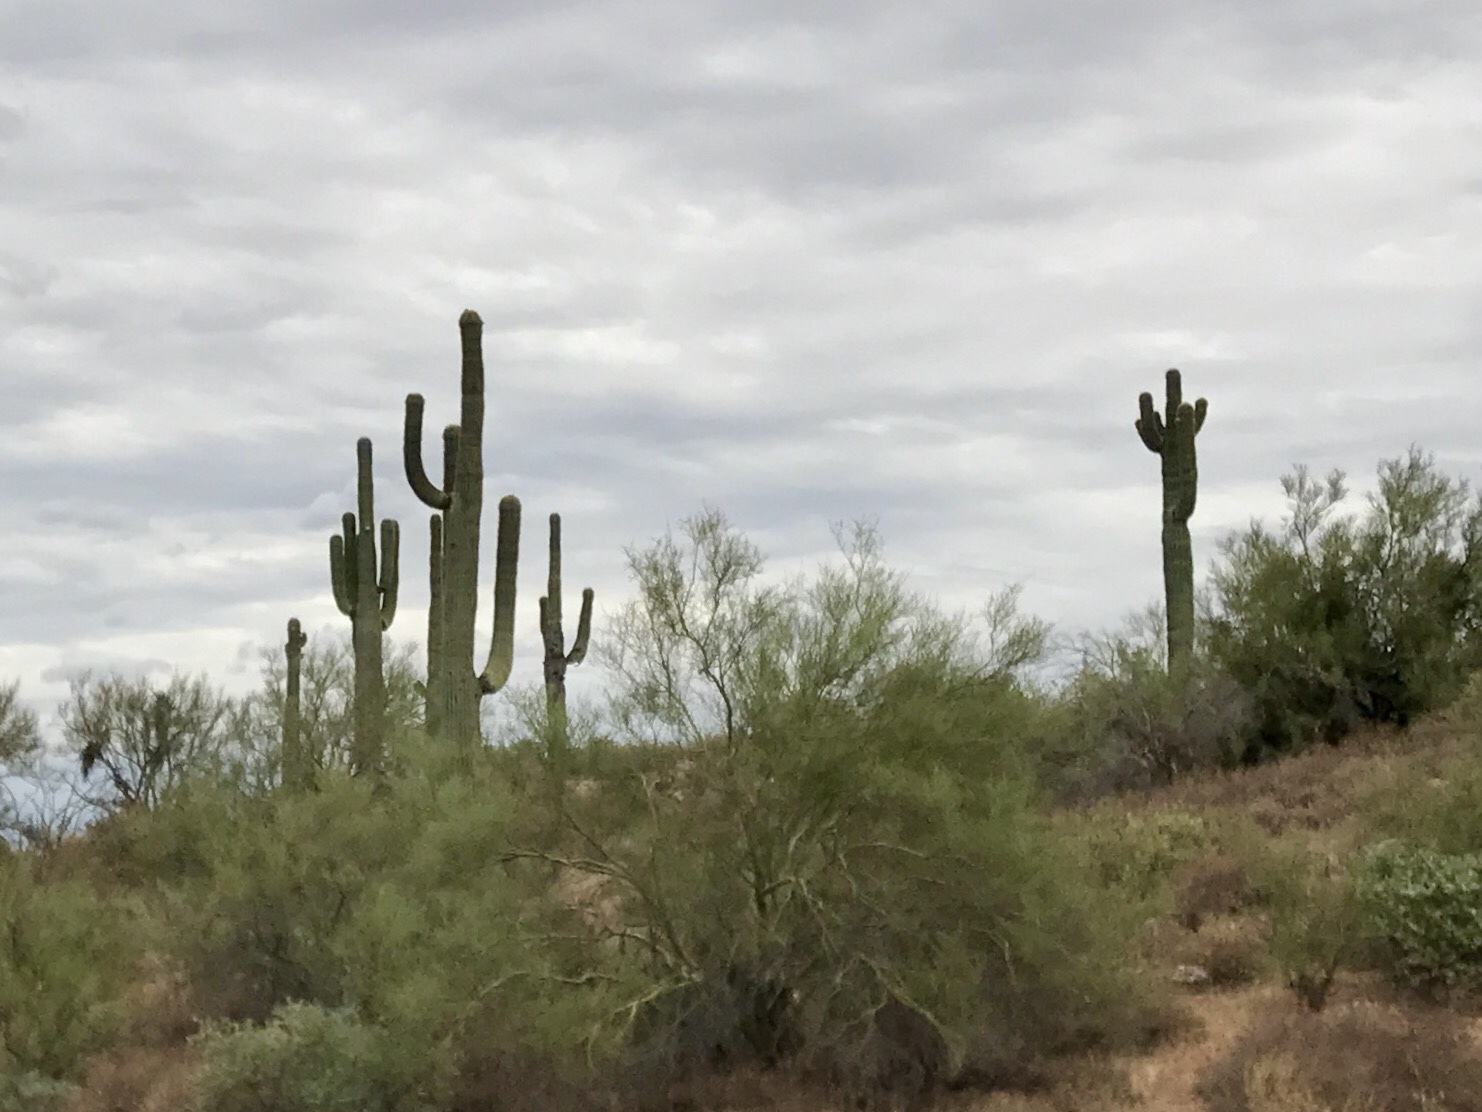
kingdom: Plantae
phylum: Tracheophyta
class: Magnoliopsida
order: Caryophyllales
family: Cactaceae
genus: Carnegiea
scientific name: Carnegiea gigantea
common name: Saguaro
